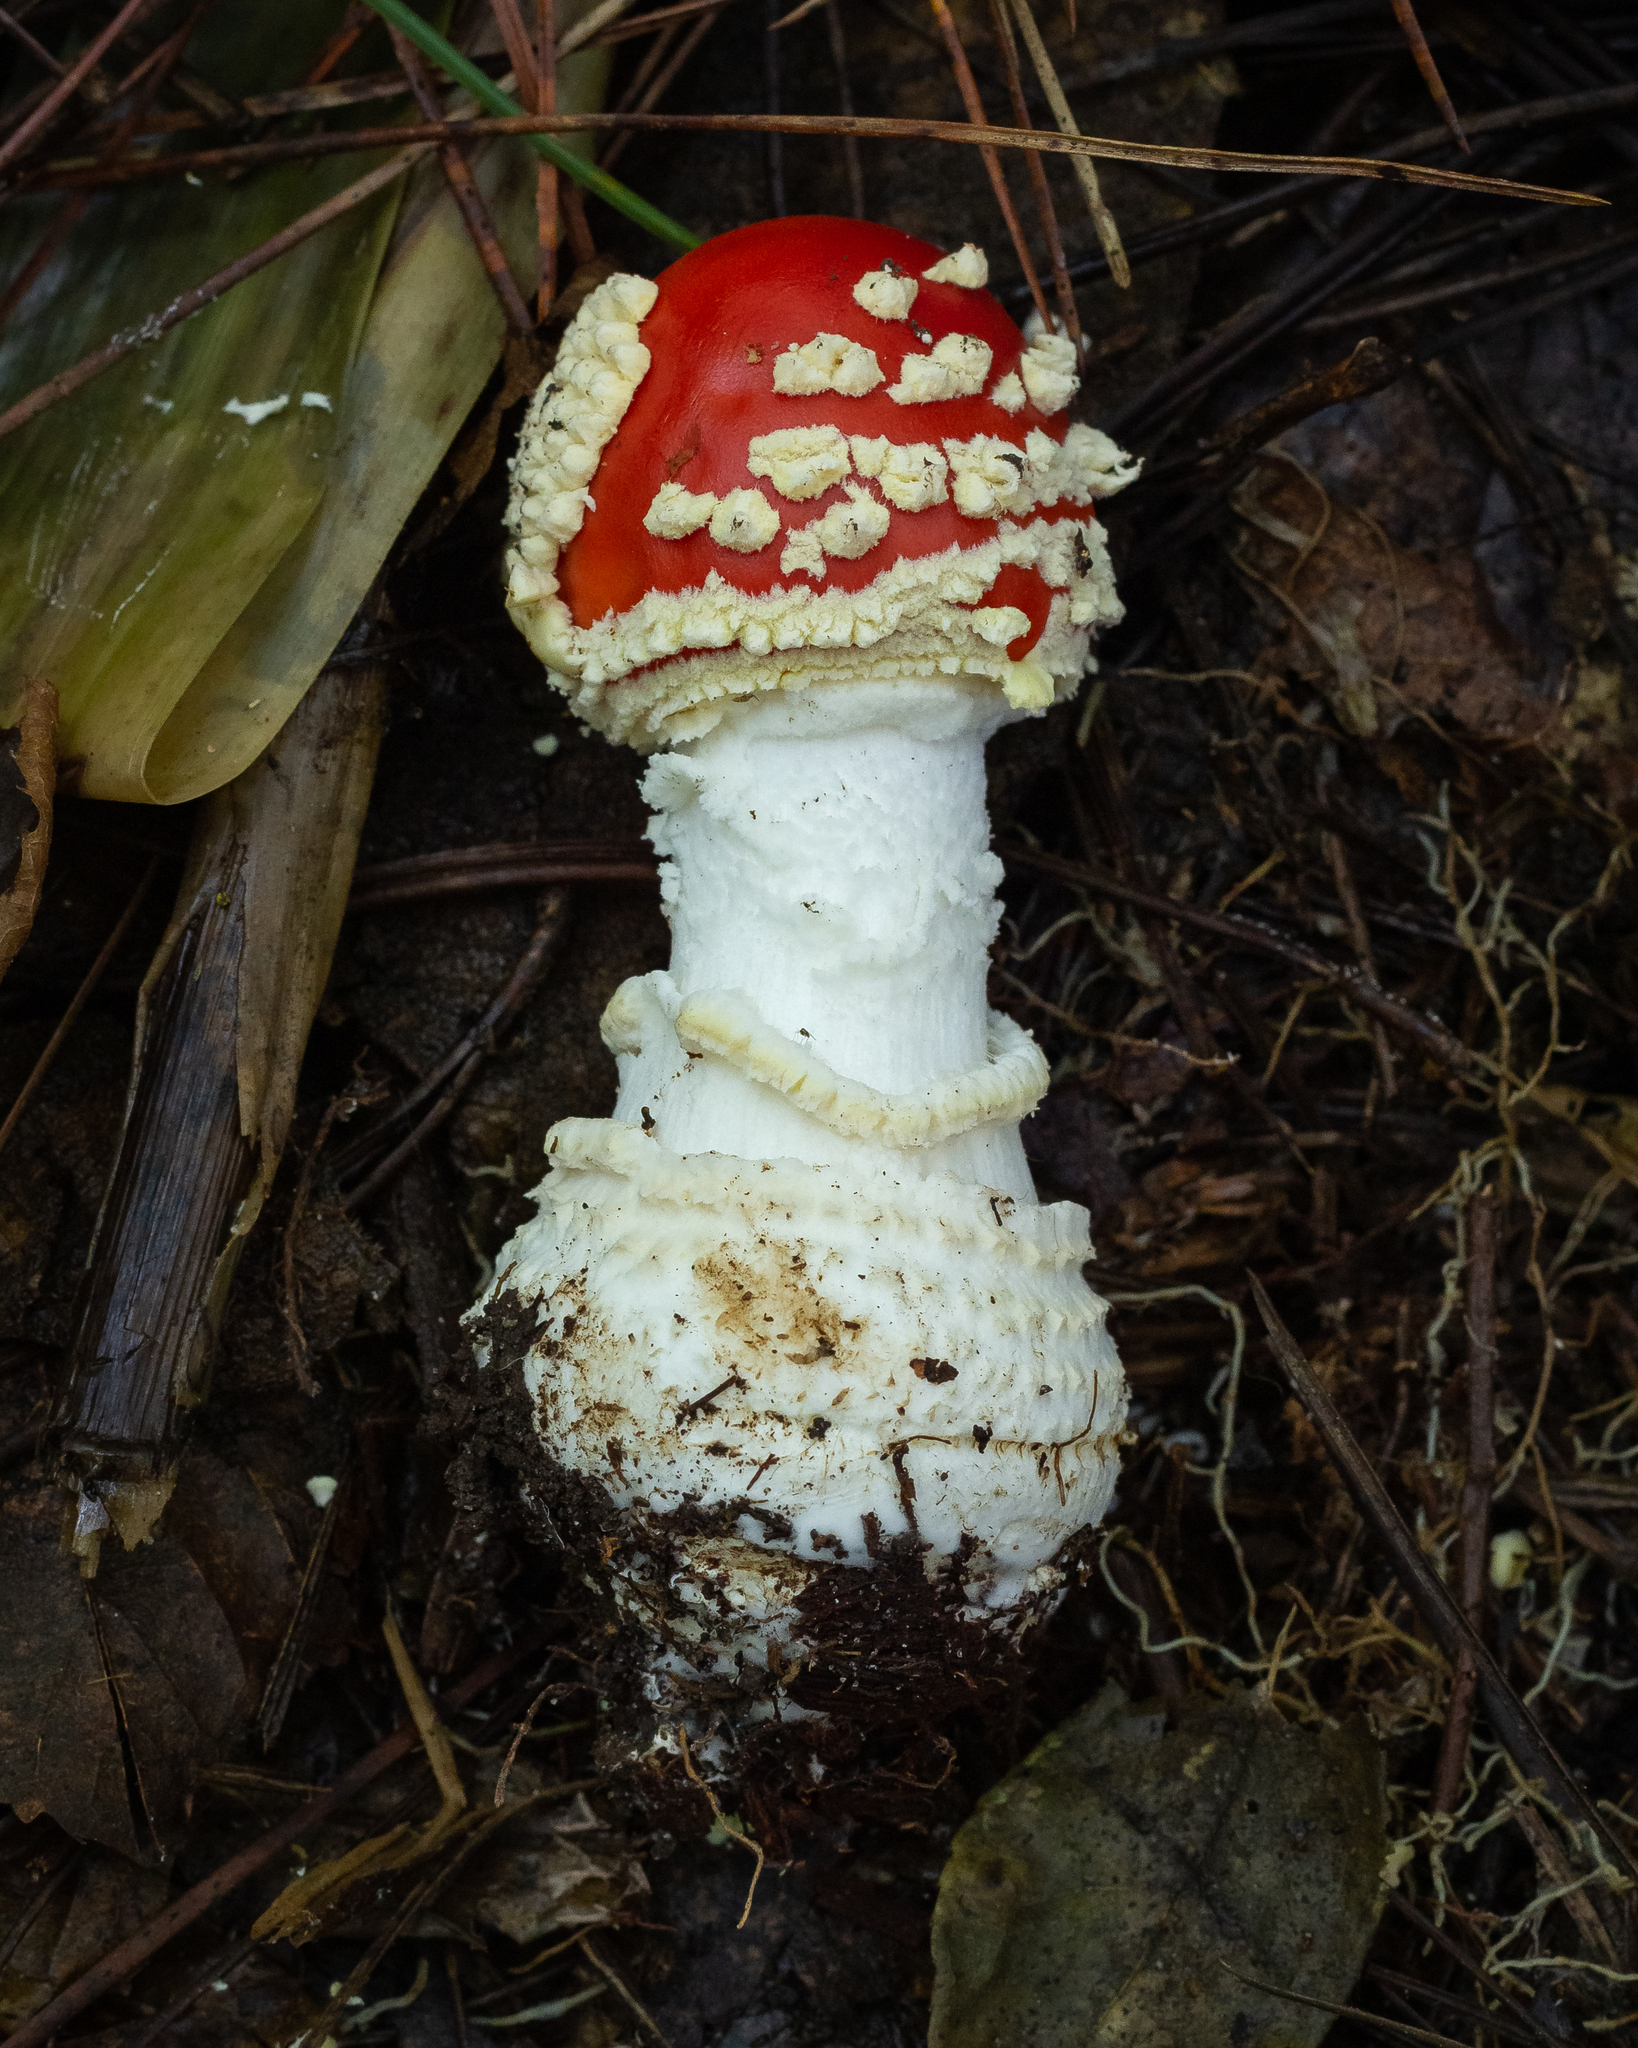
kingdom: Fungi
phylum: Basidiomycota
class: Agaricomycetes
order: Agaricales
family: Amanitaceae
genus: Amanita
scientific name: Amanita muscaria
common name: Fly agaric
